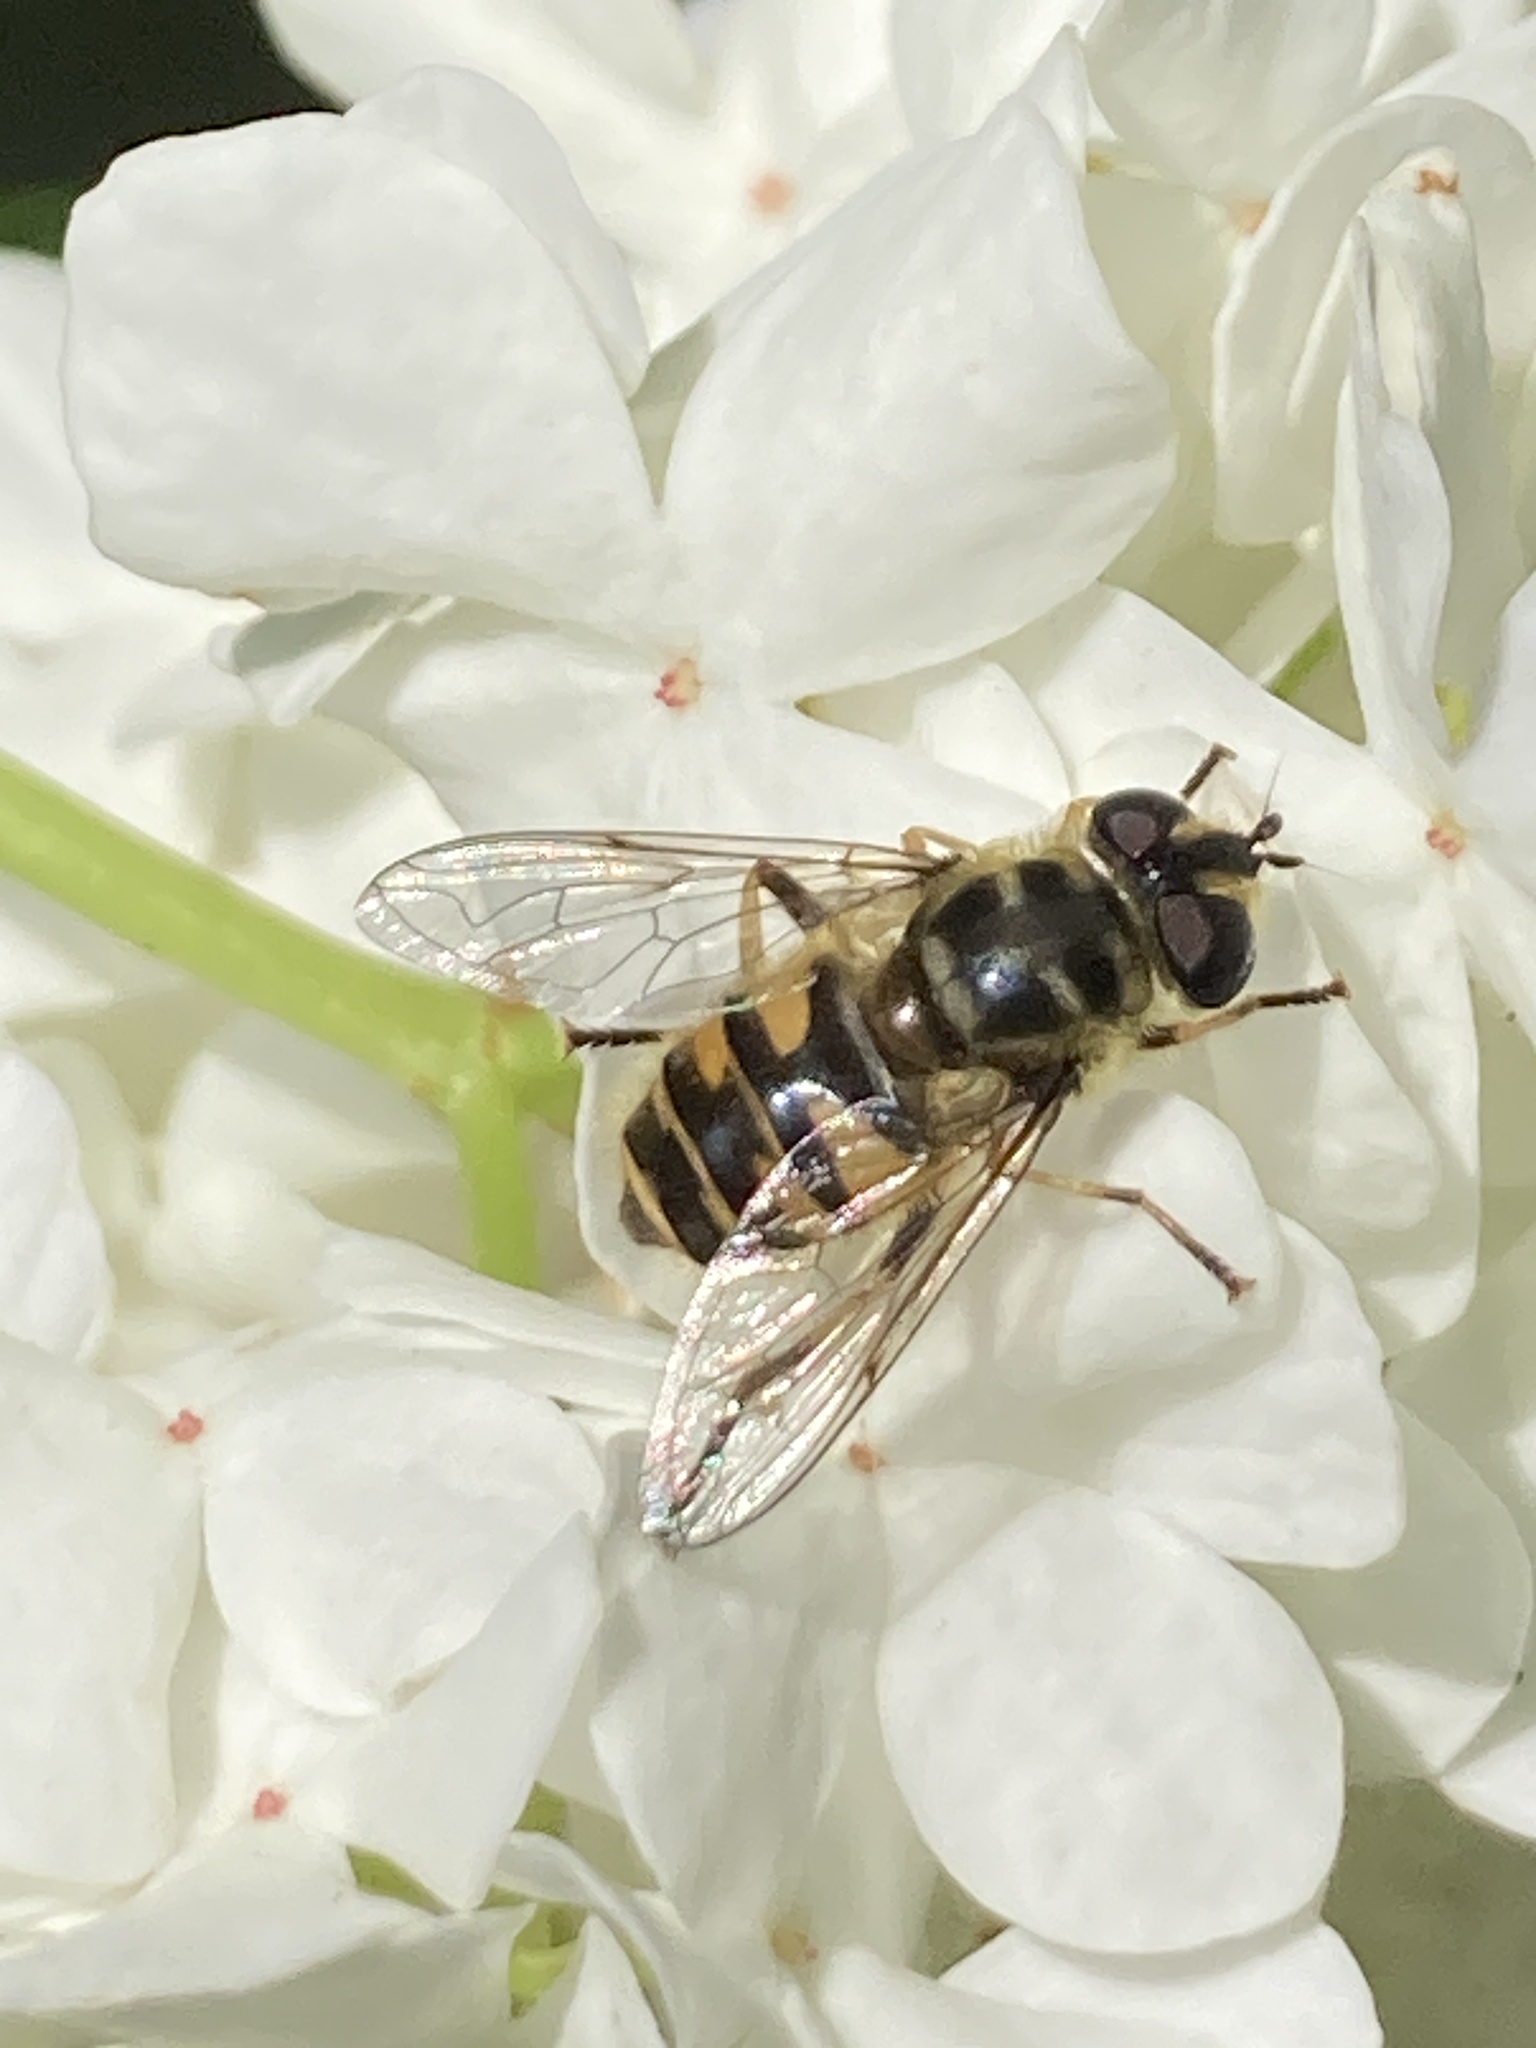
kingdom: Animalia
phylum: Arthropoda
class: Insecta
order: Diptera
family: Syrphidae
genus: Myathropa
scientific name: Myathropa florea
